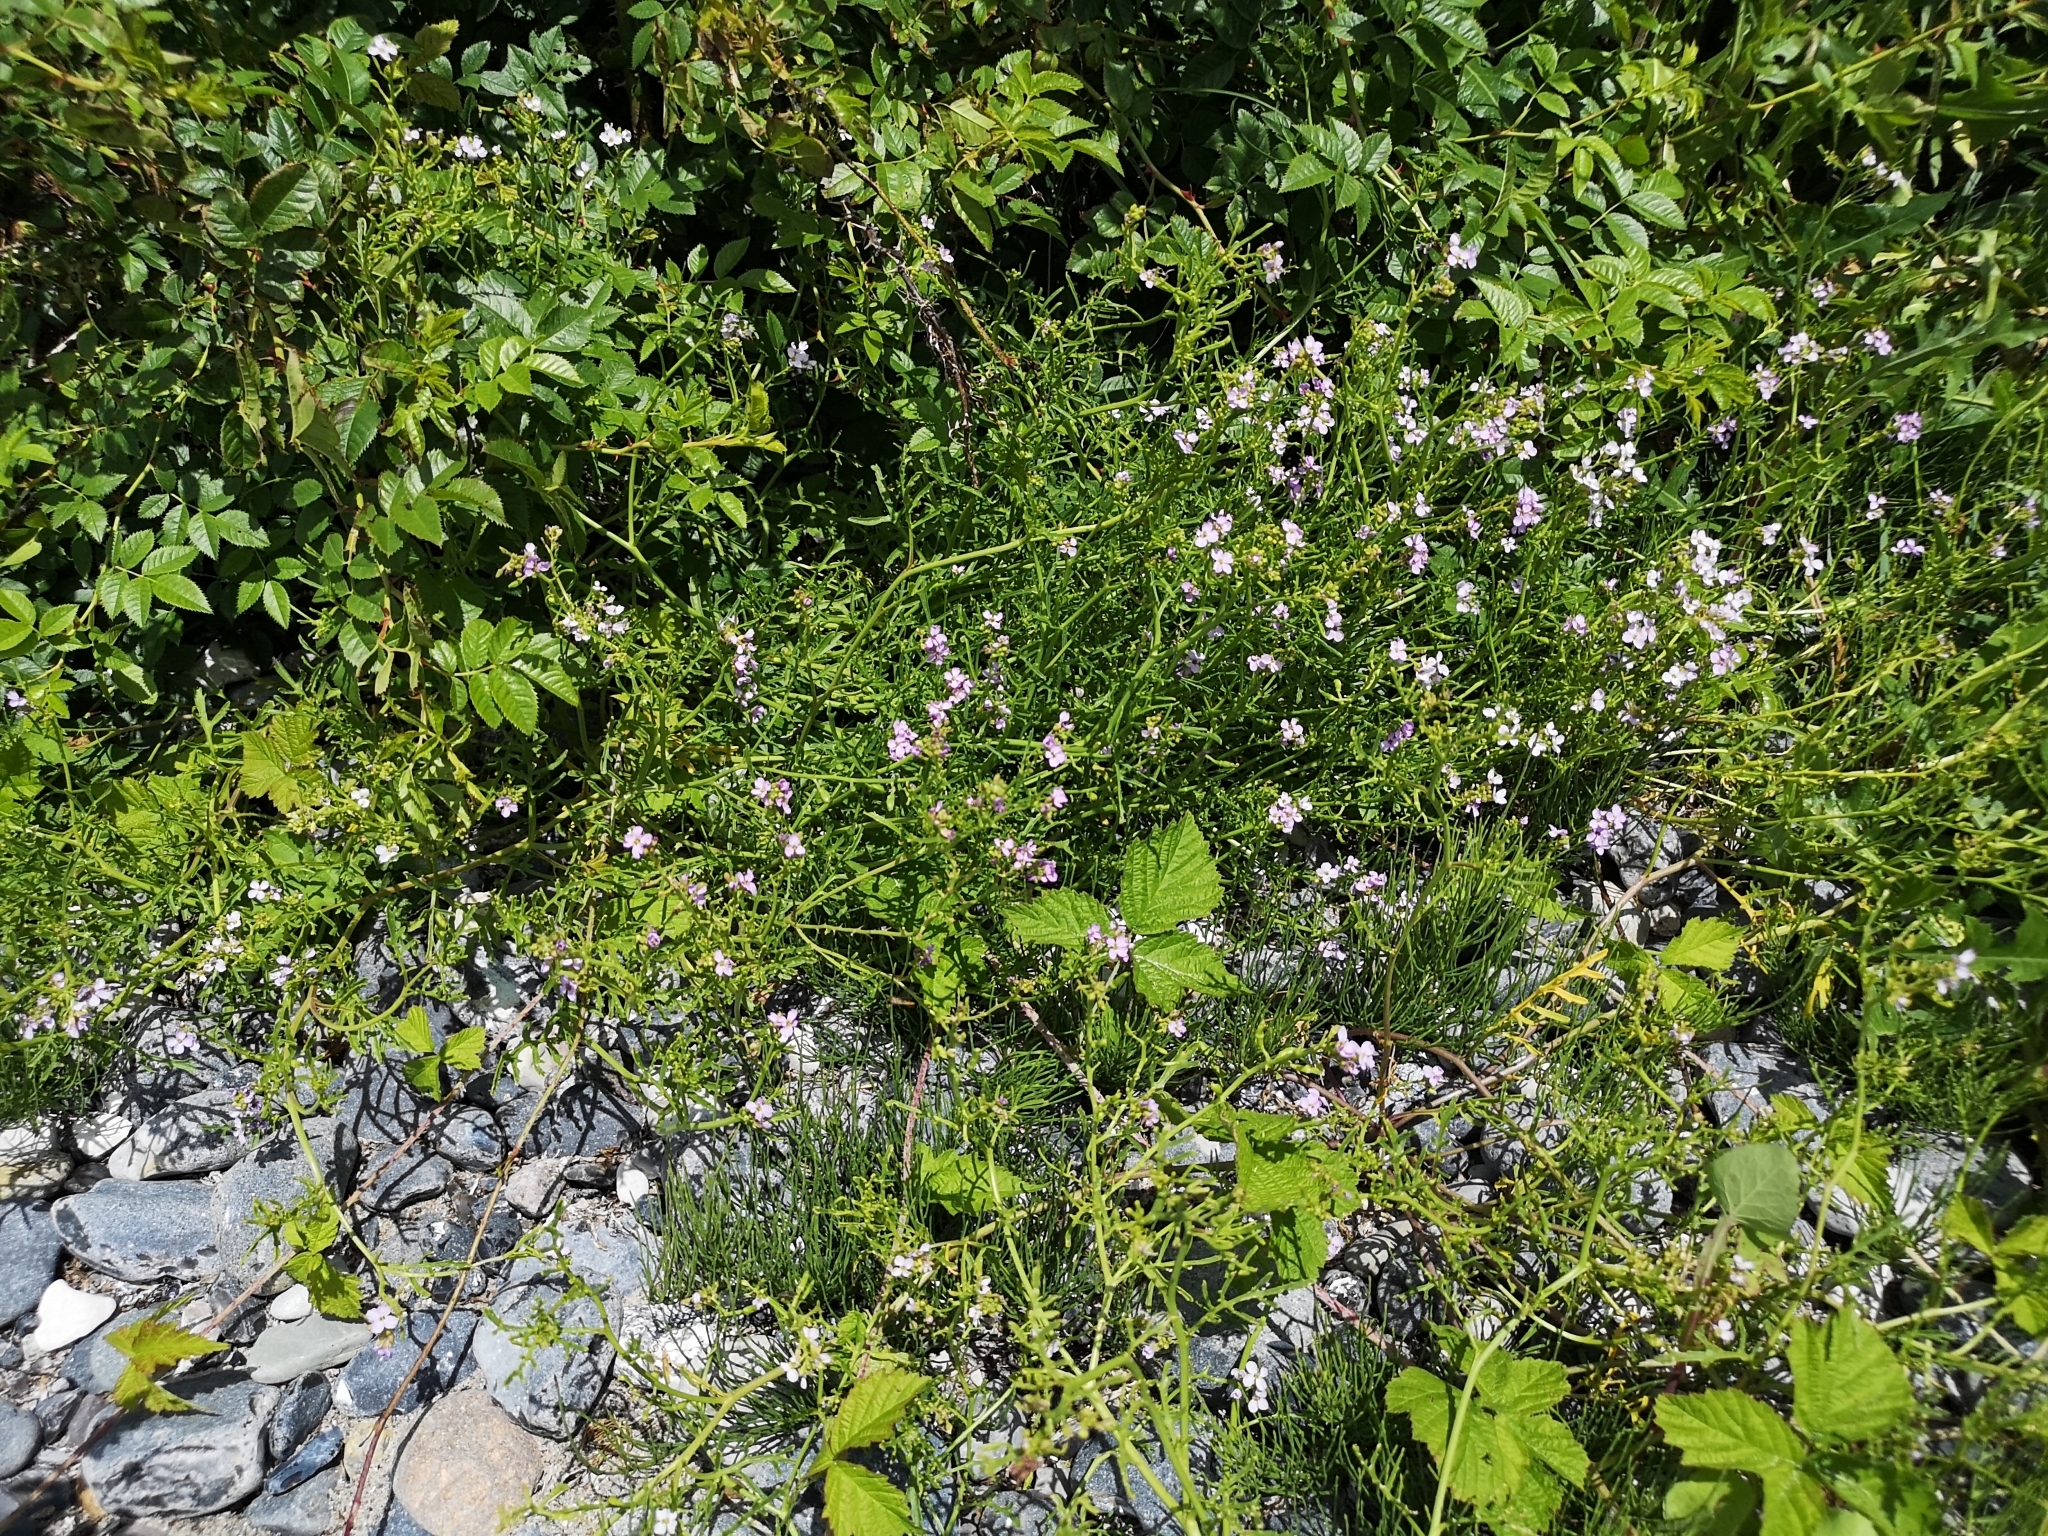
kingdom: Plantae
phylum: Tracheophyta
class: Magnoliopsida
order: Brassicales
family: Brassicaceae
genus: Cakile
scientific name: Cakile maritima
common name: Sea rocket
